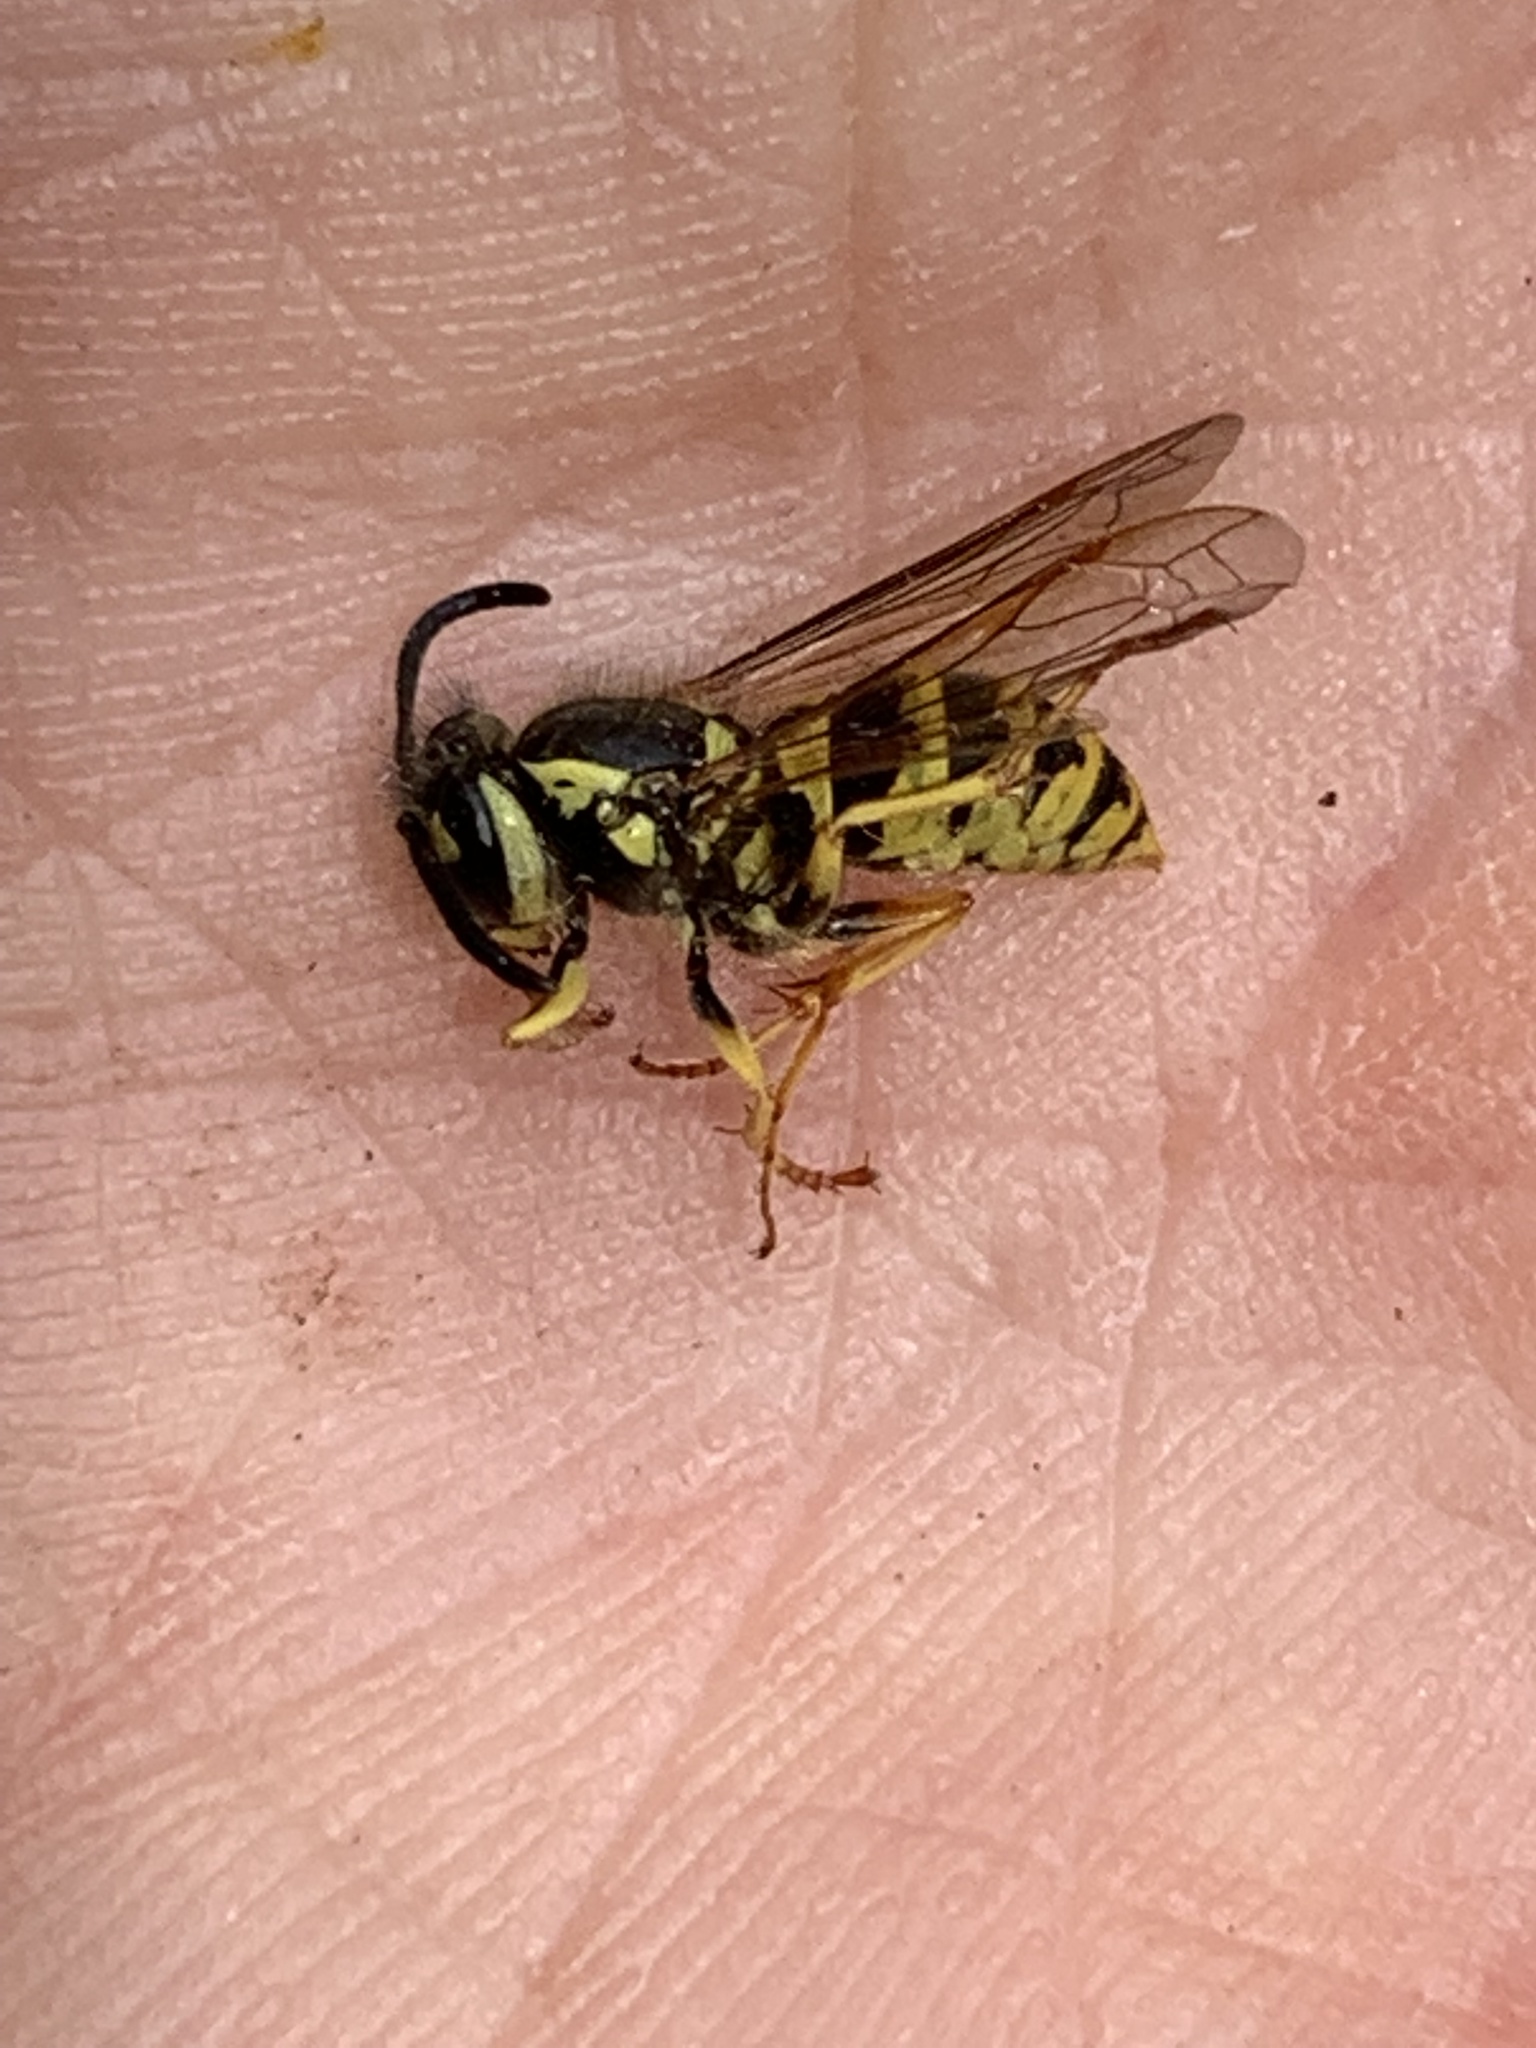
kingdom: Animalia
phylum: Arthropoda
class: Insecta
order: Hymenoptera
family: Vespidae
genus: Vespula
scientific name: Vespula flavopilosa
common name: Downy yellowjacket
